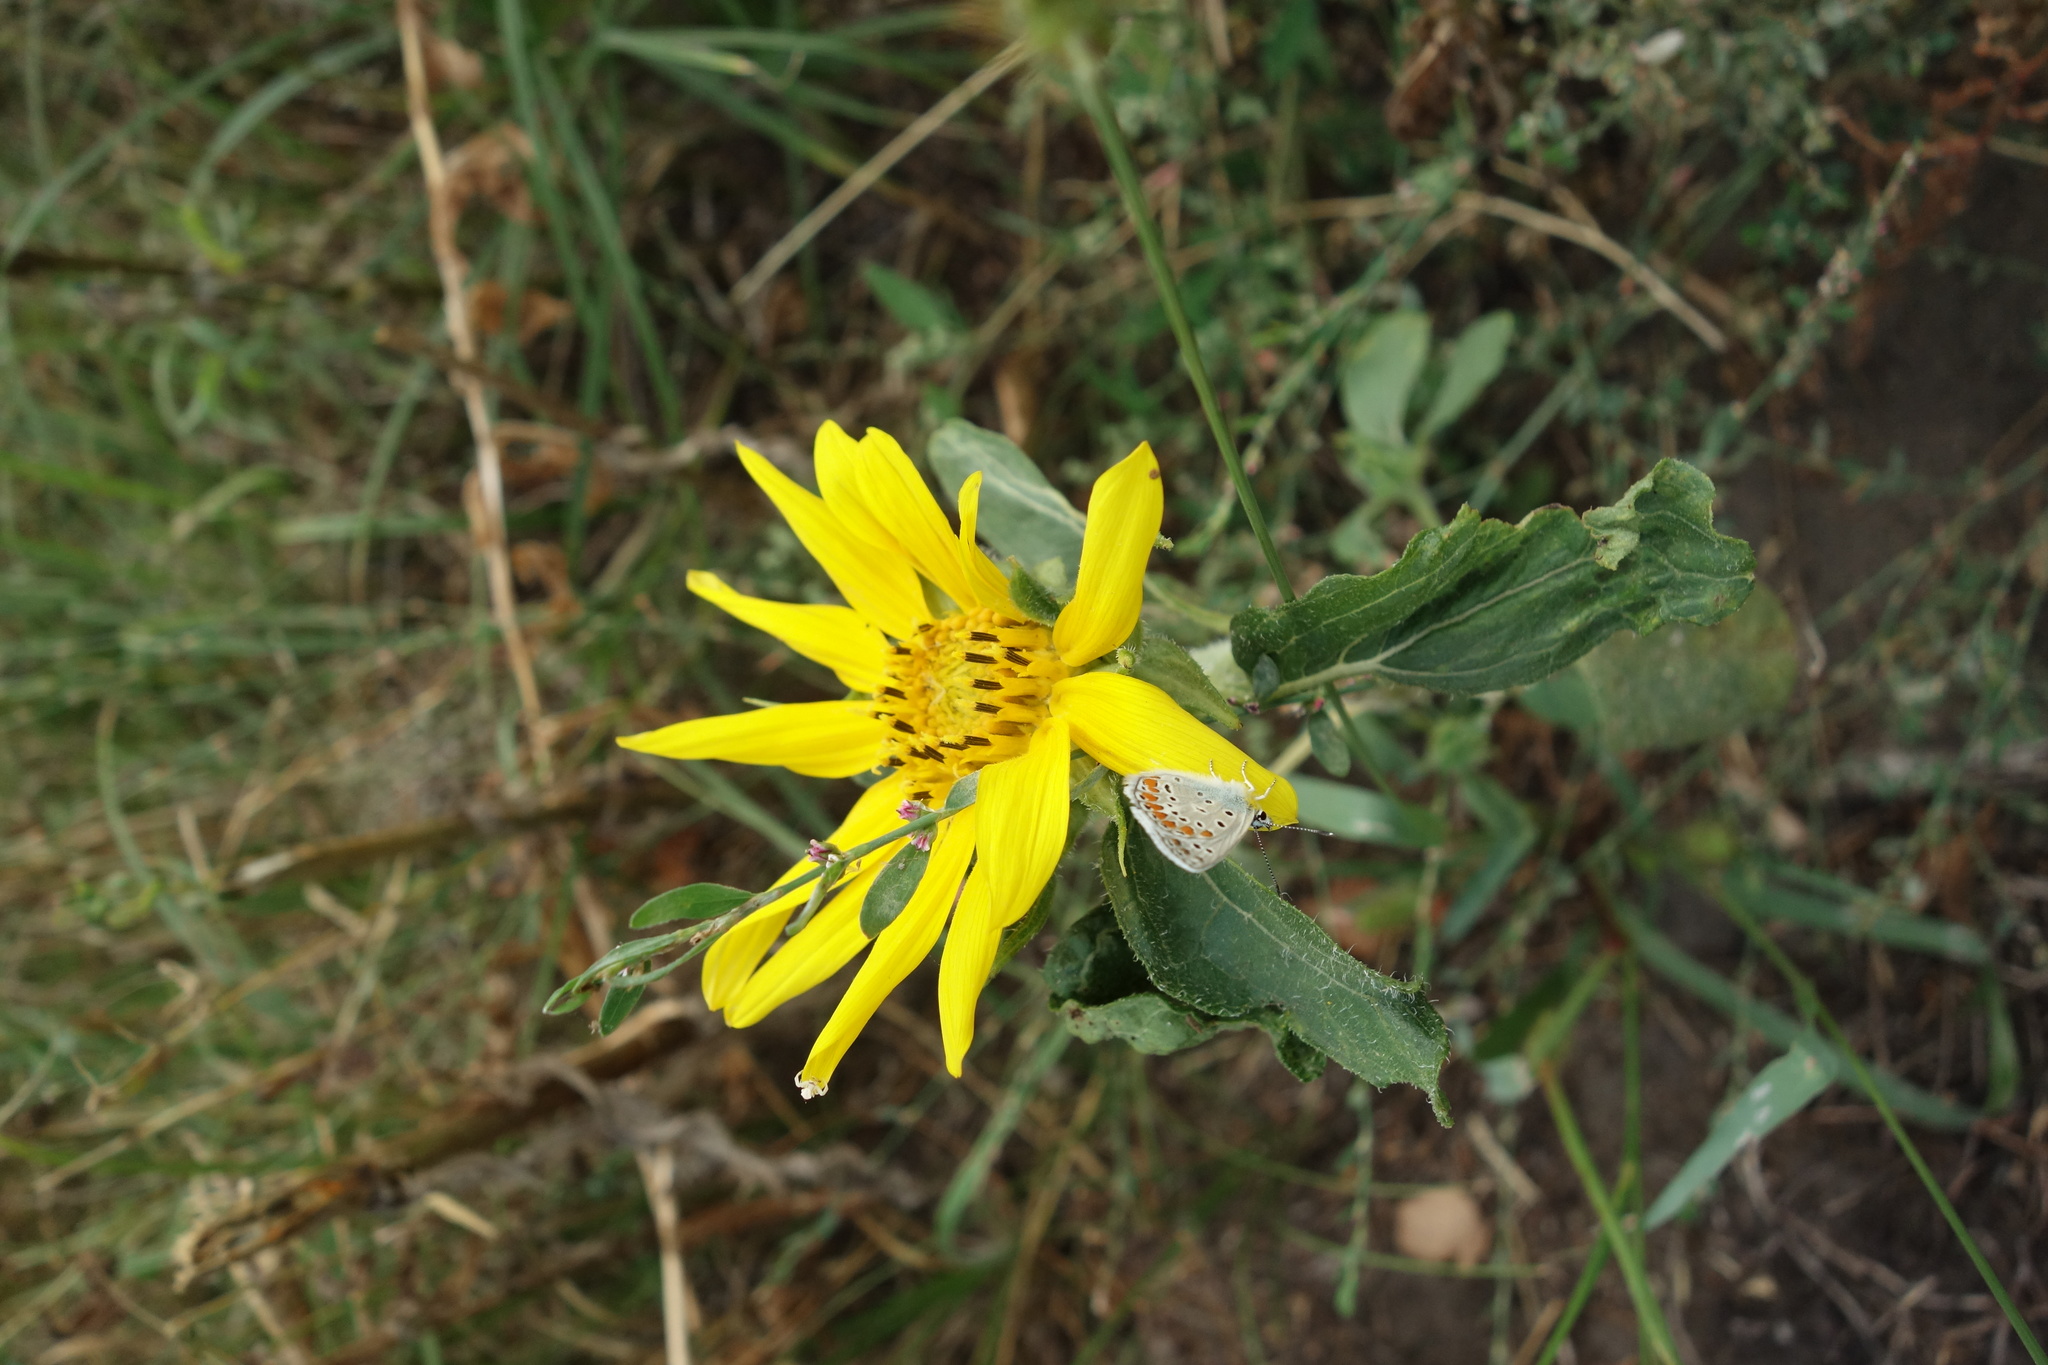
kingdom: Plantae
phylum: Tracheophyta
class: Magnoliopsida
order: Asterales
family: Asteraceae
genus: Helianthus
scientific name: Helianthus annuus
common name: Sunflower
